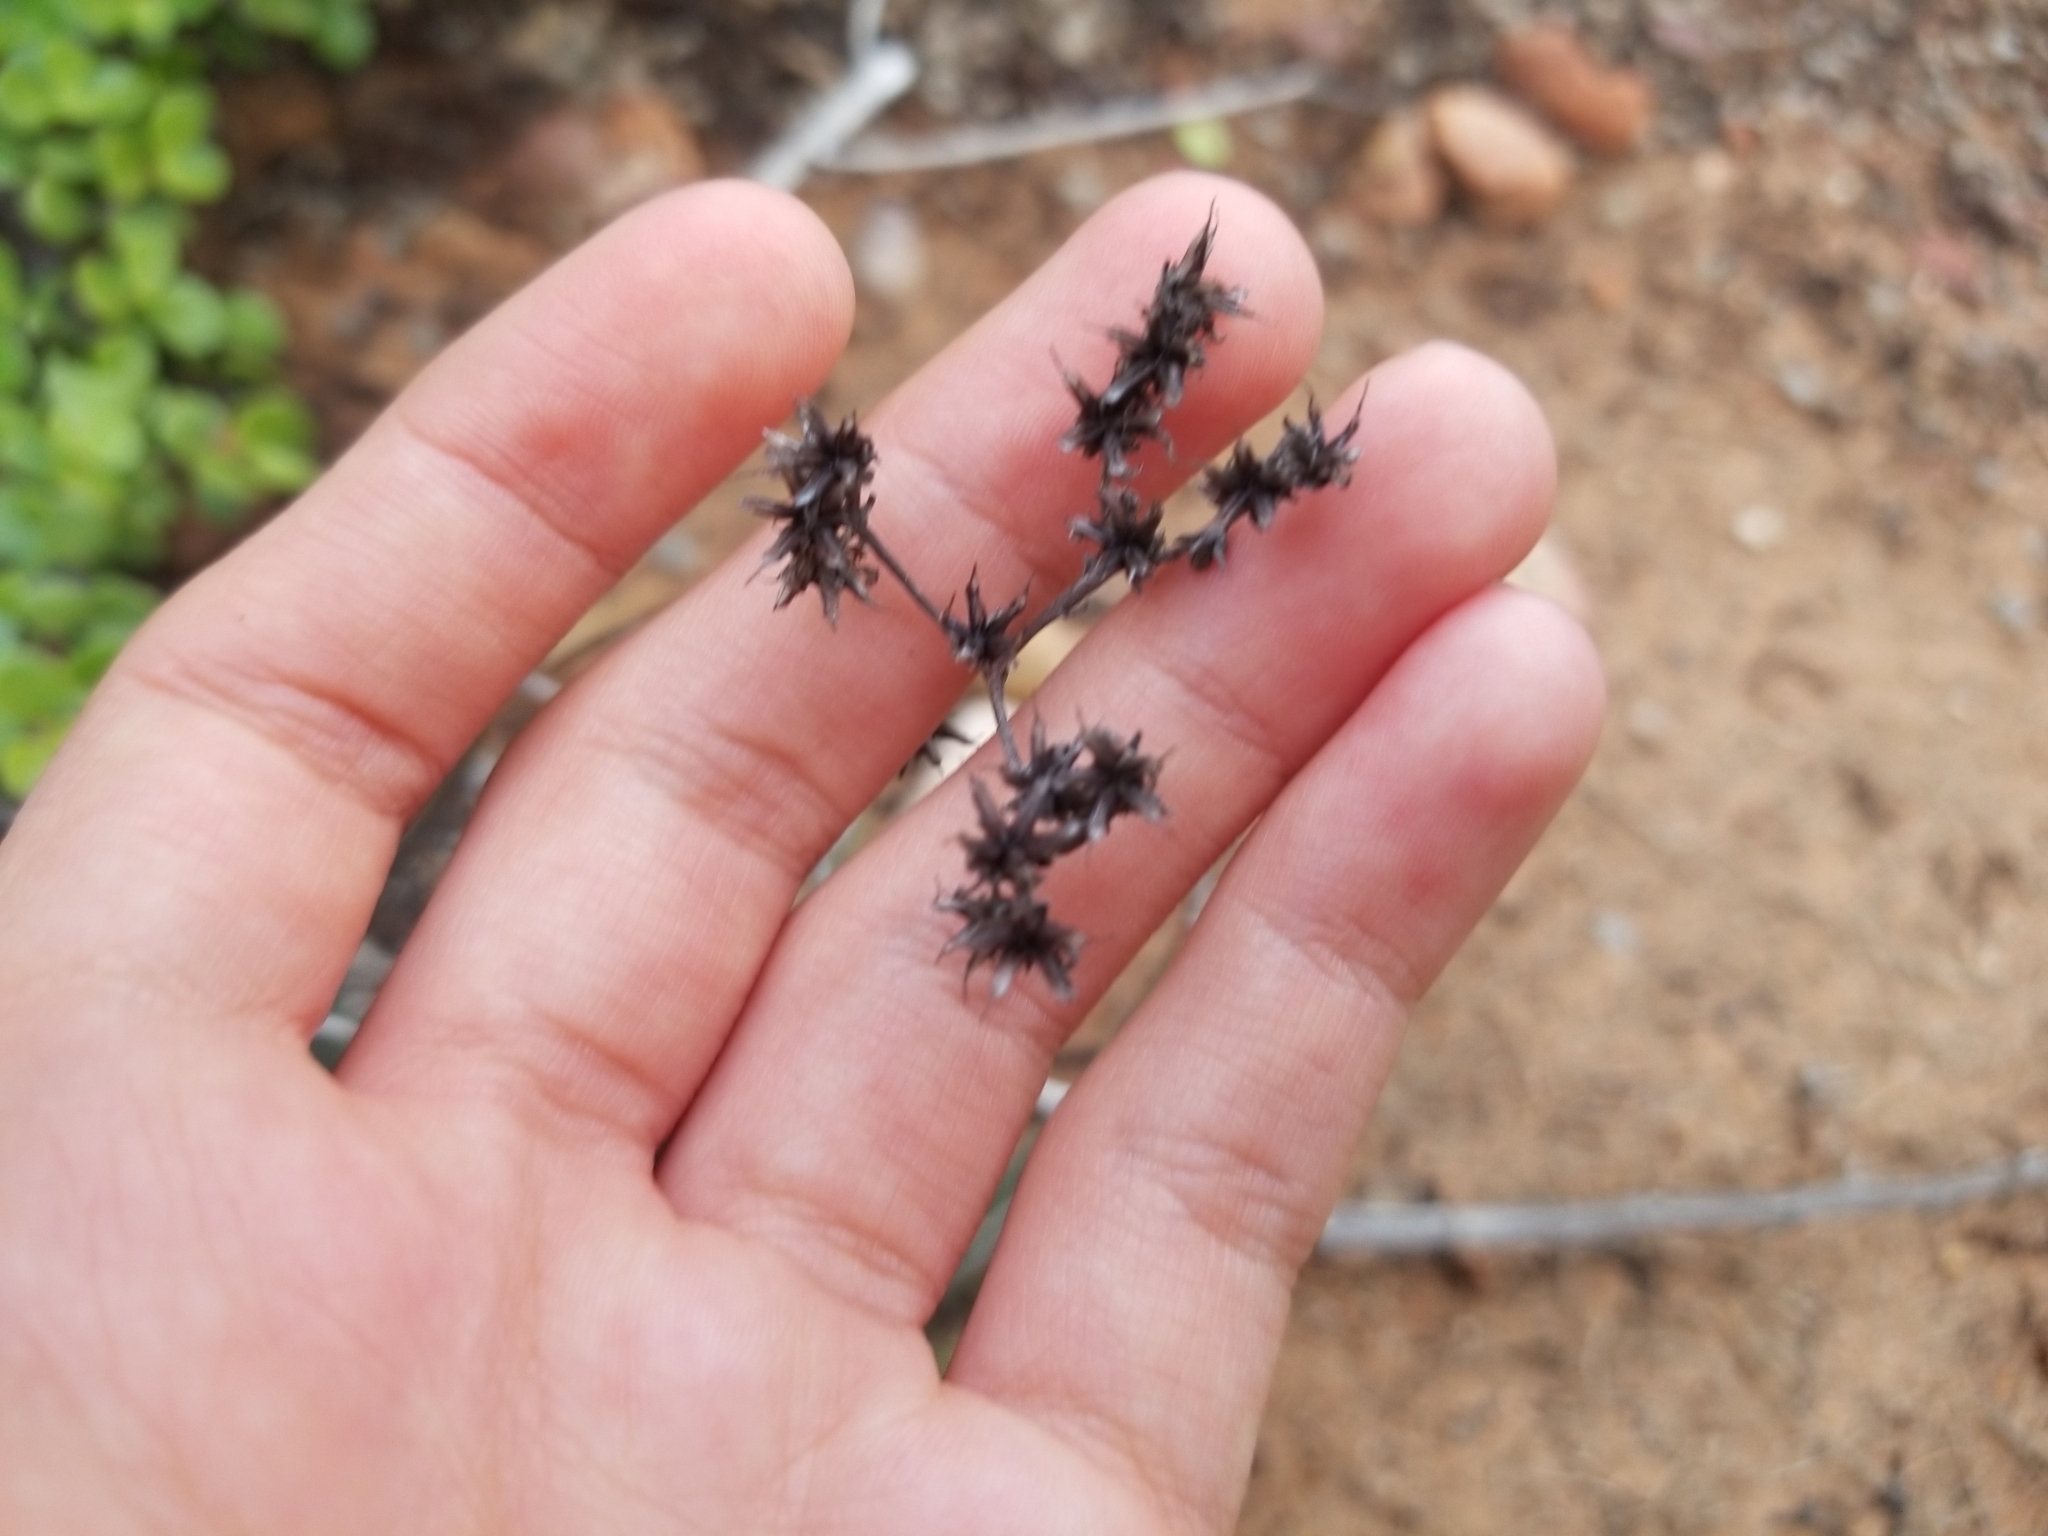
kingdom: Plantae
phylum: Tracheophyta
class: Magnoliopsida
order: Saxifragales
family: Crassulaceae
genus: Dudleya
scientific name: Dudleya edulis
